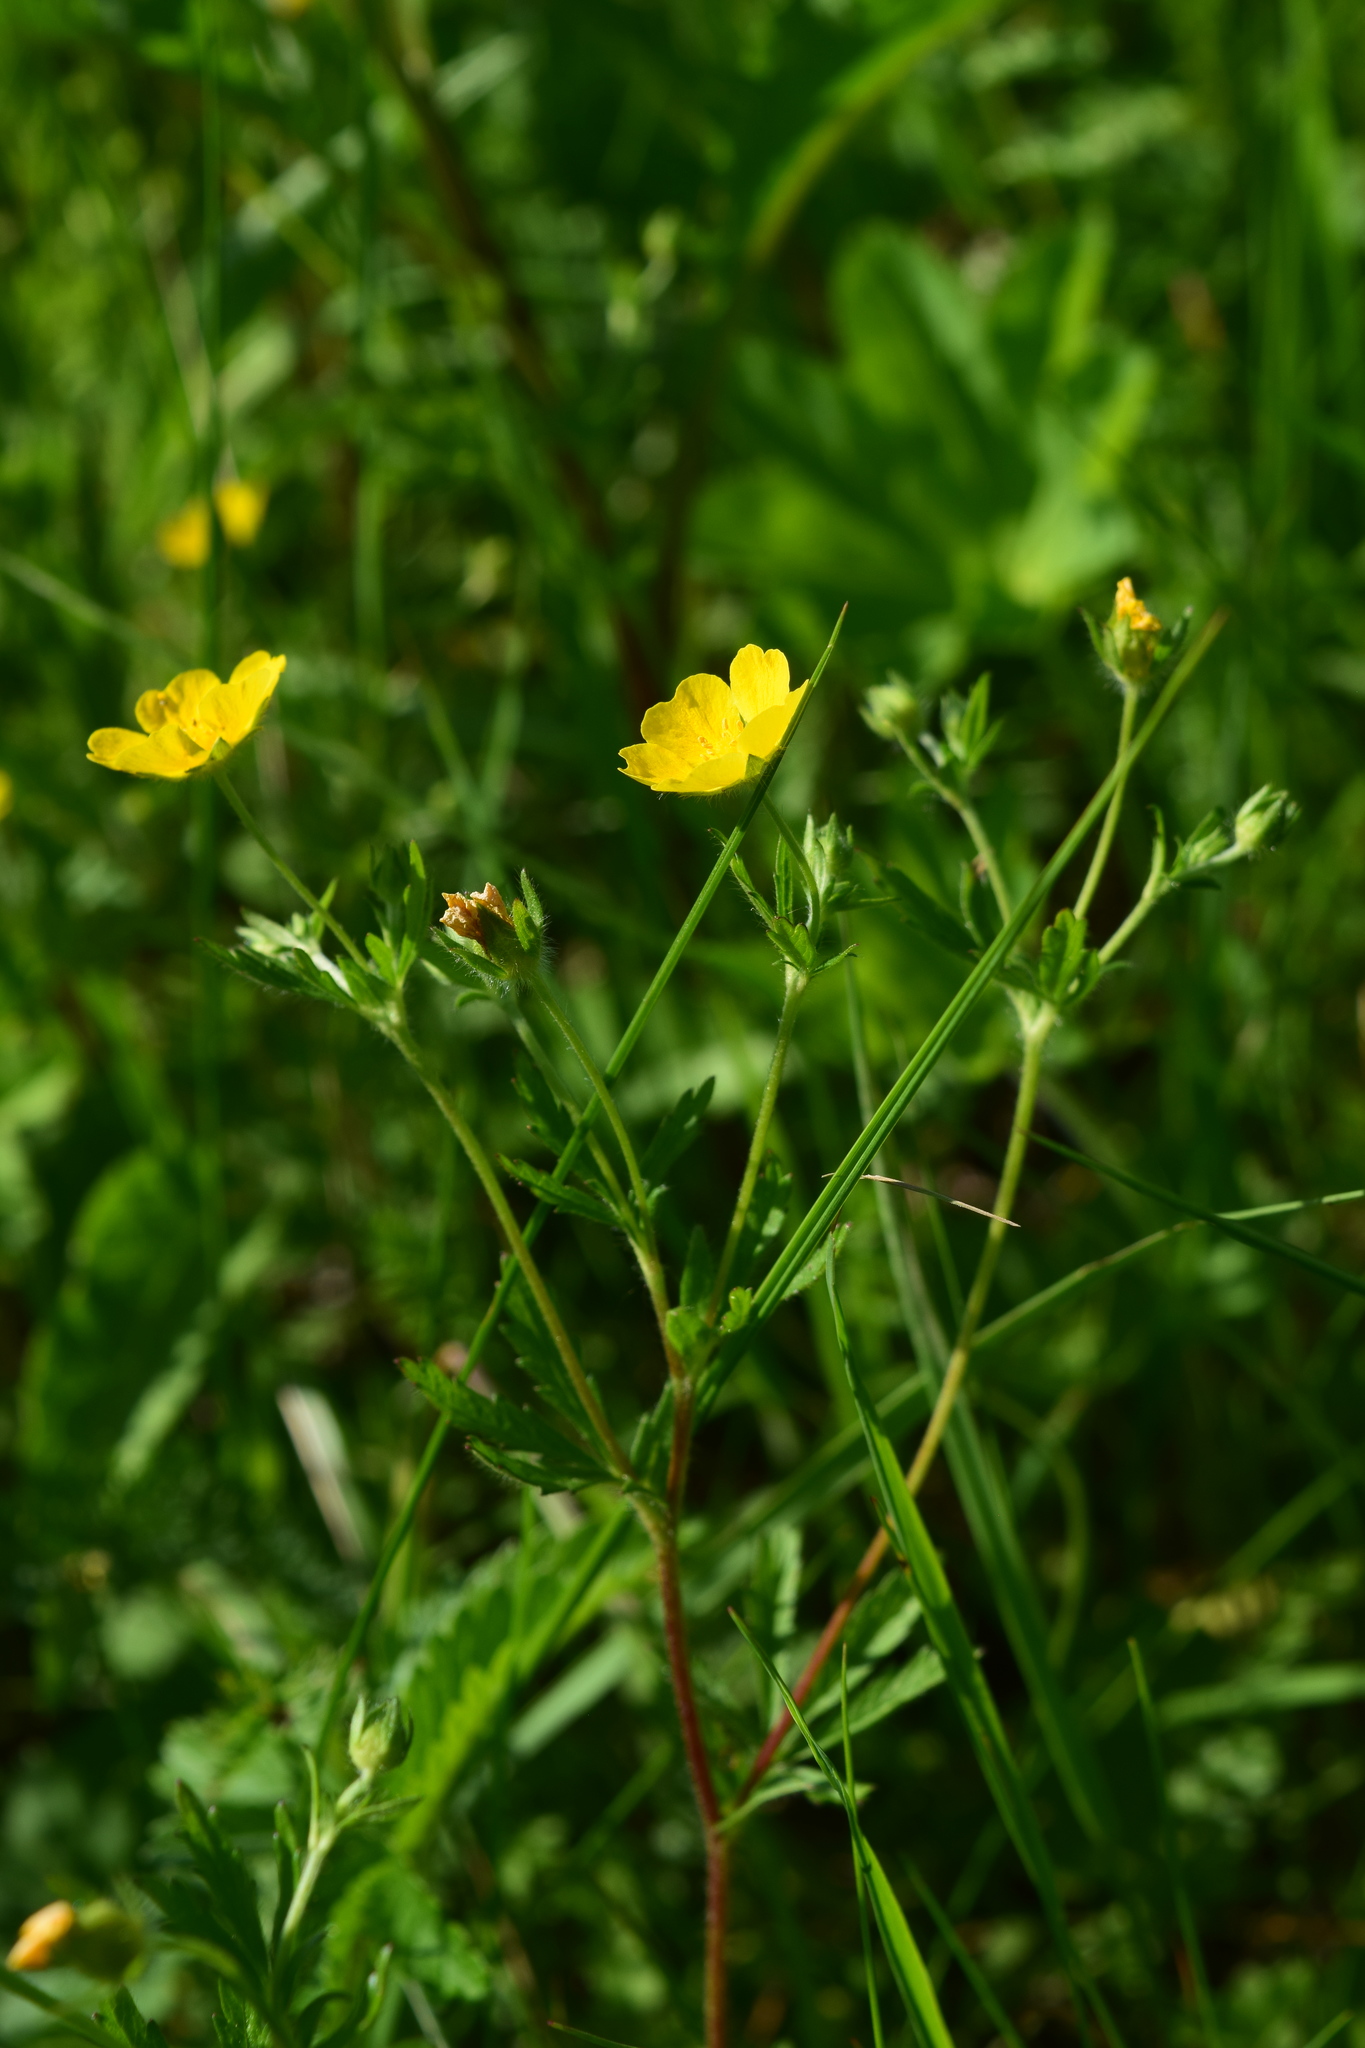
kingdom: Plantae
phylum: Tracheophyta
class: Magnoliopsida
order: Rosales
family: Rosaceae
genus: Potentilla
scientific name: Potentilla thuringiaca
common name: European cinquefoil
